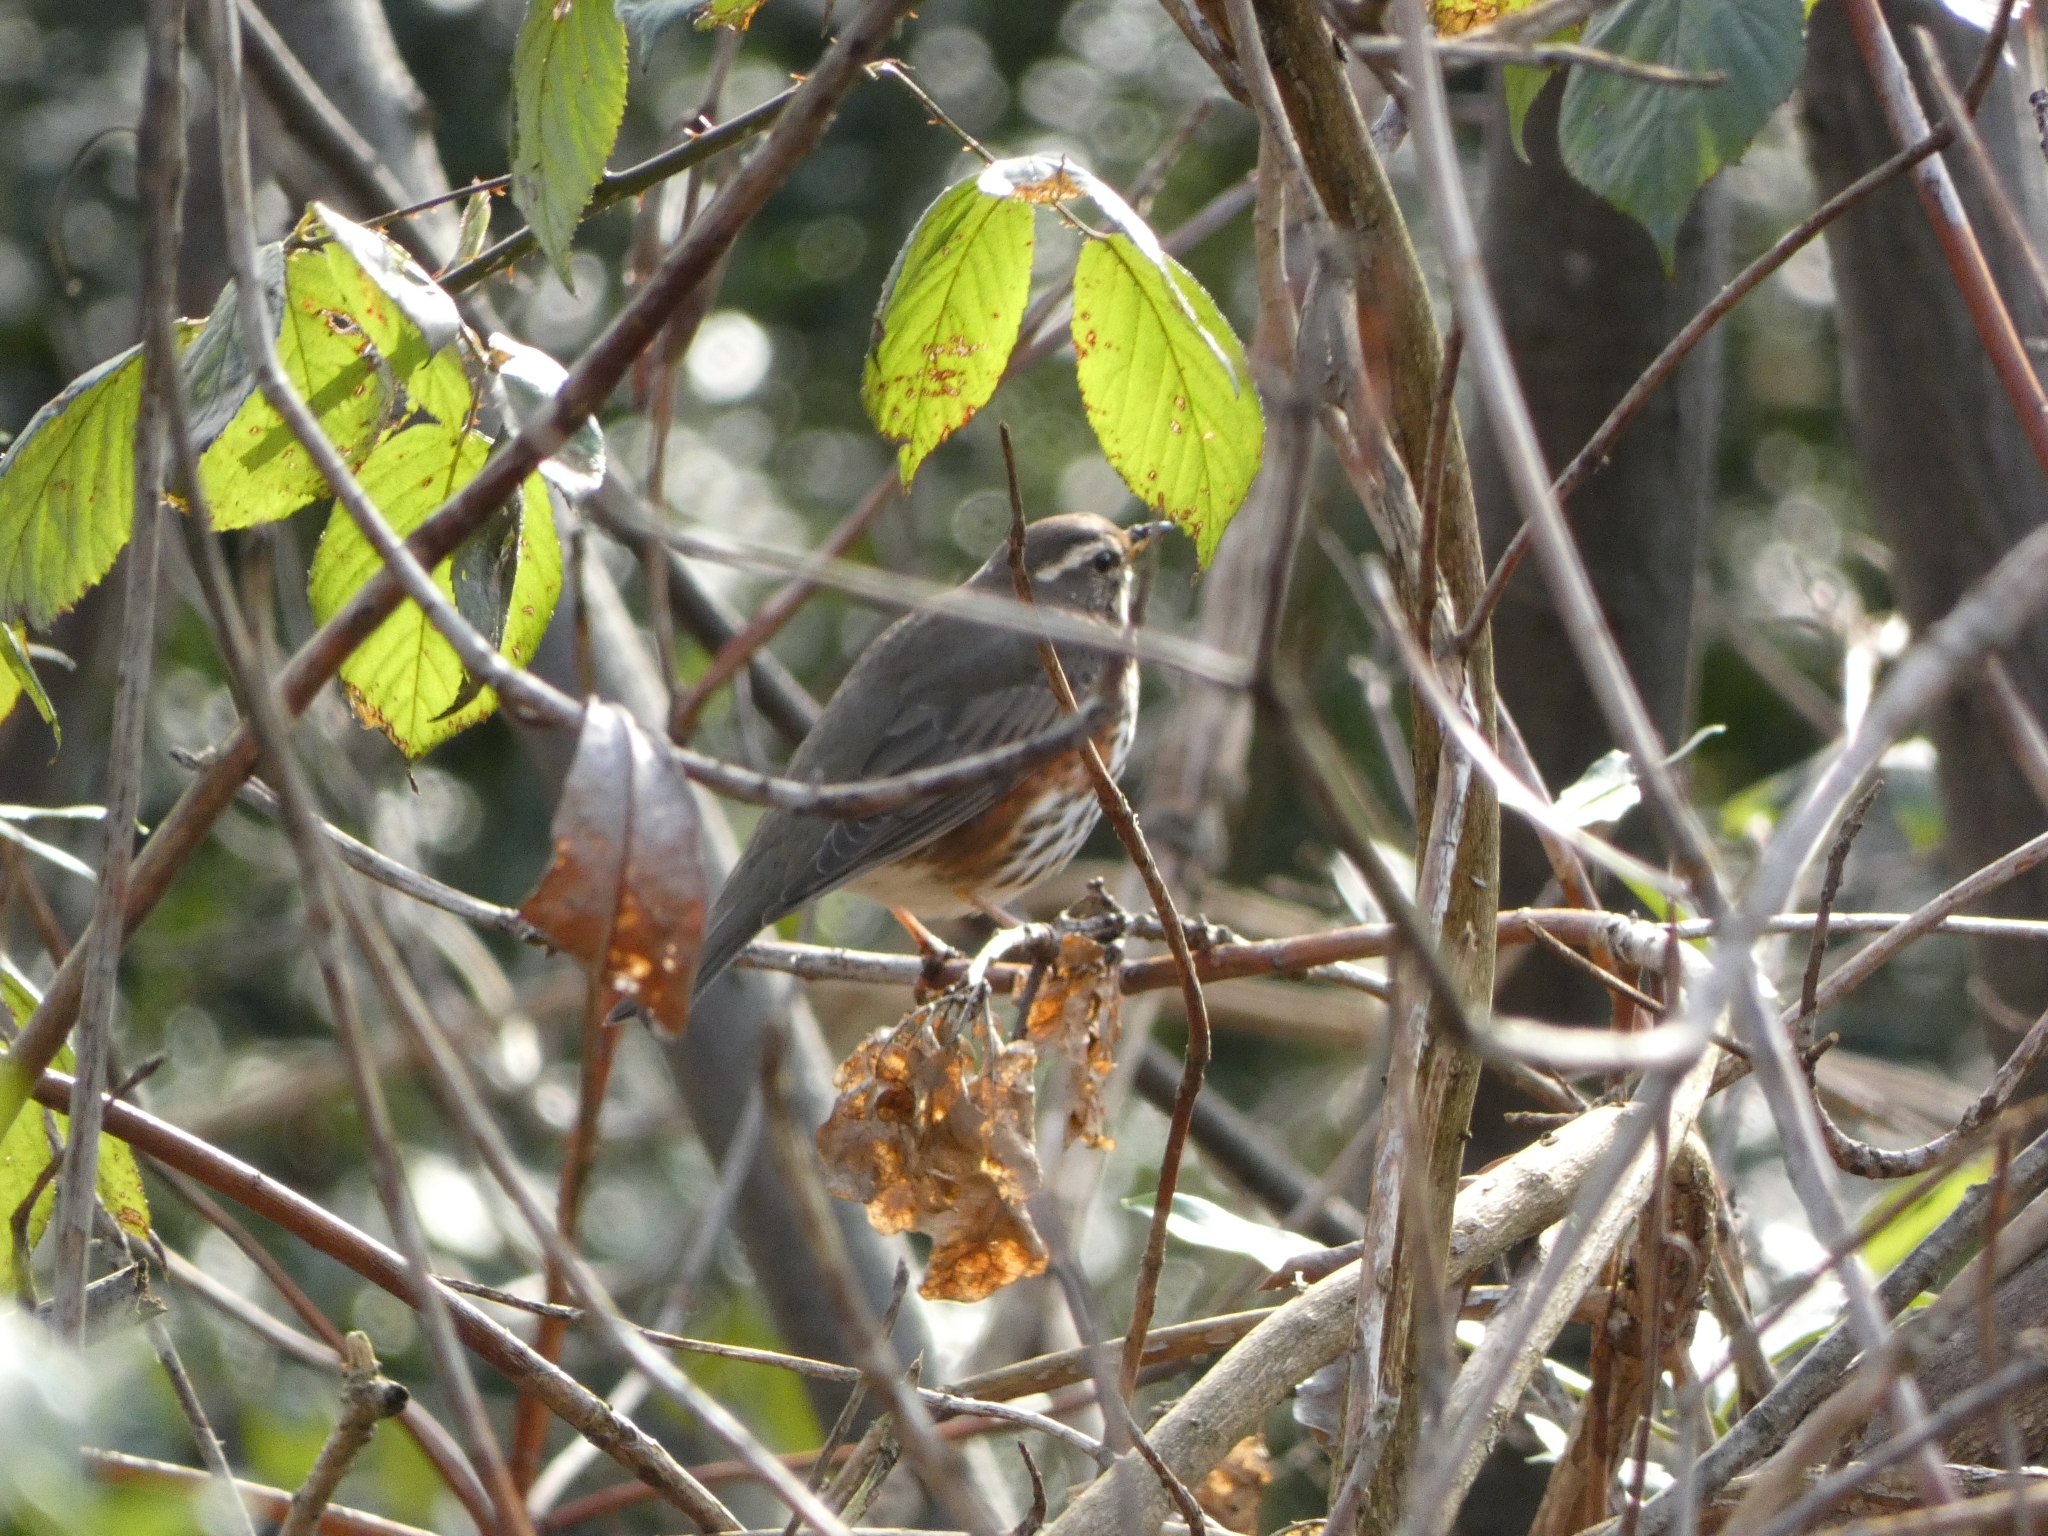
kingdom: Animalia
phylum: Chordata
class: Aves
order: Passeriformes
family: Turdidae
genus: Turdus
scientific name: Turdus iliacus
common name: Redwing
